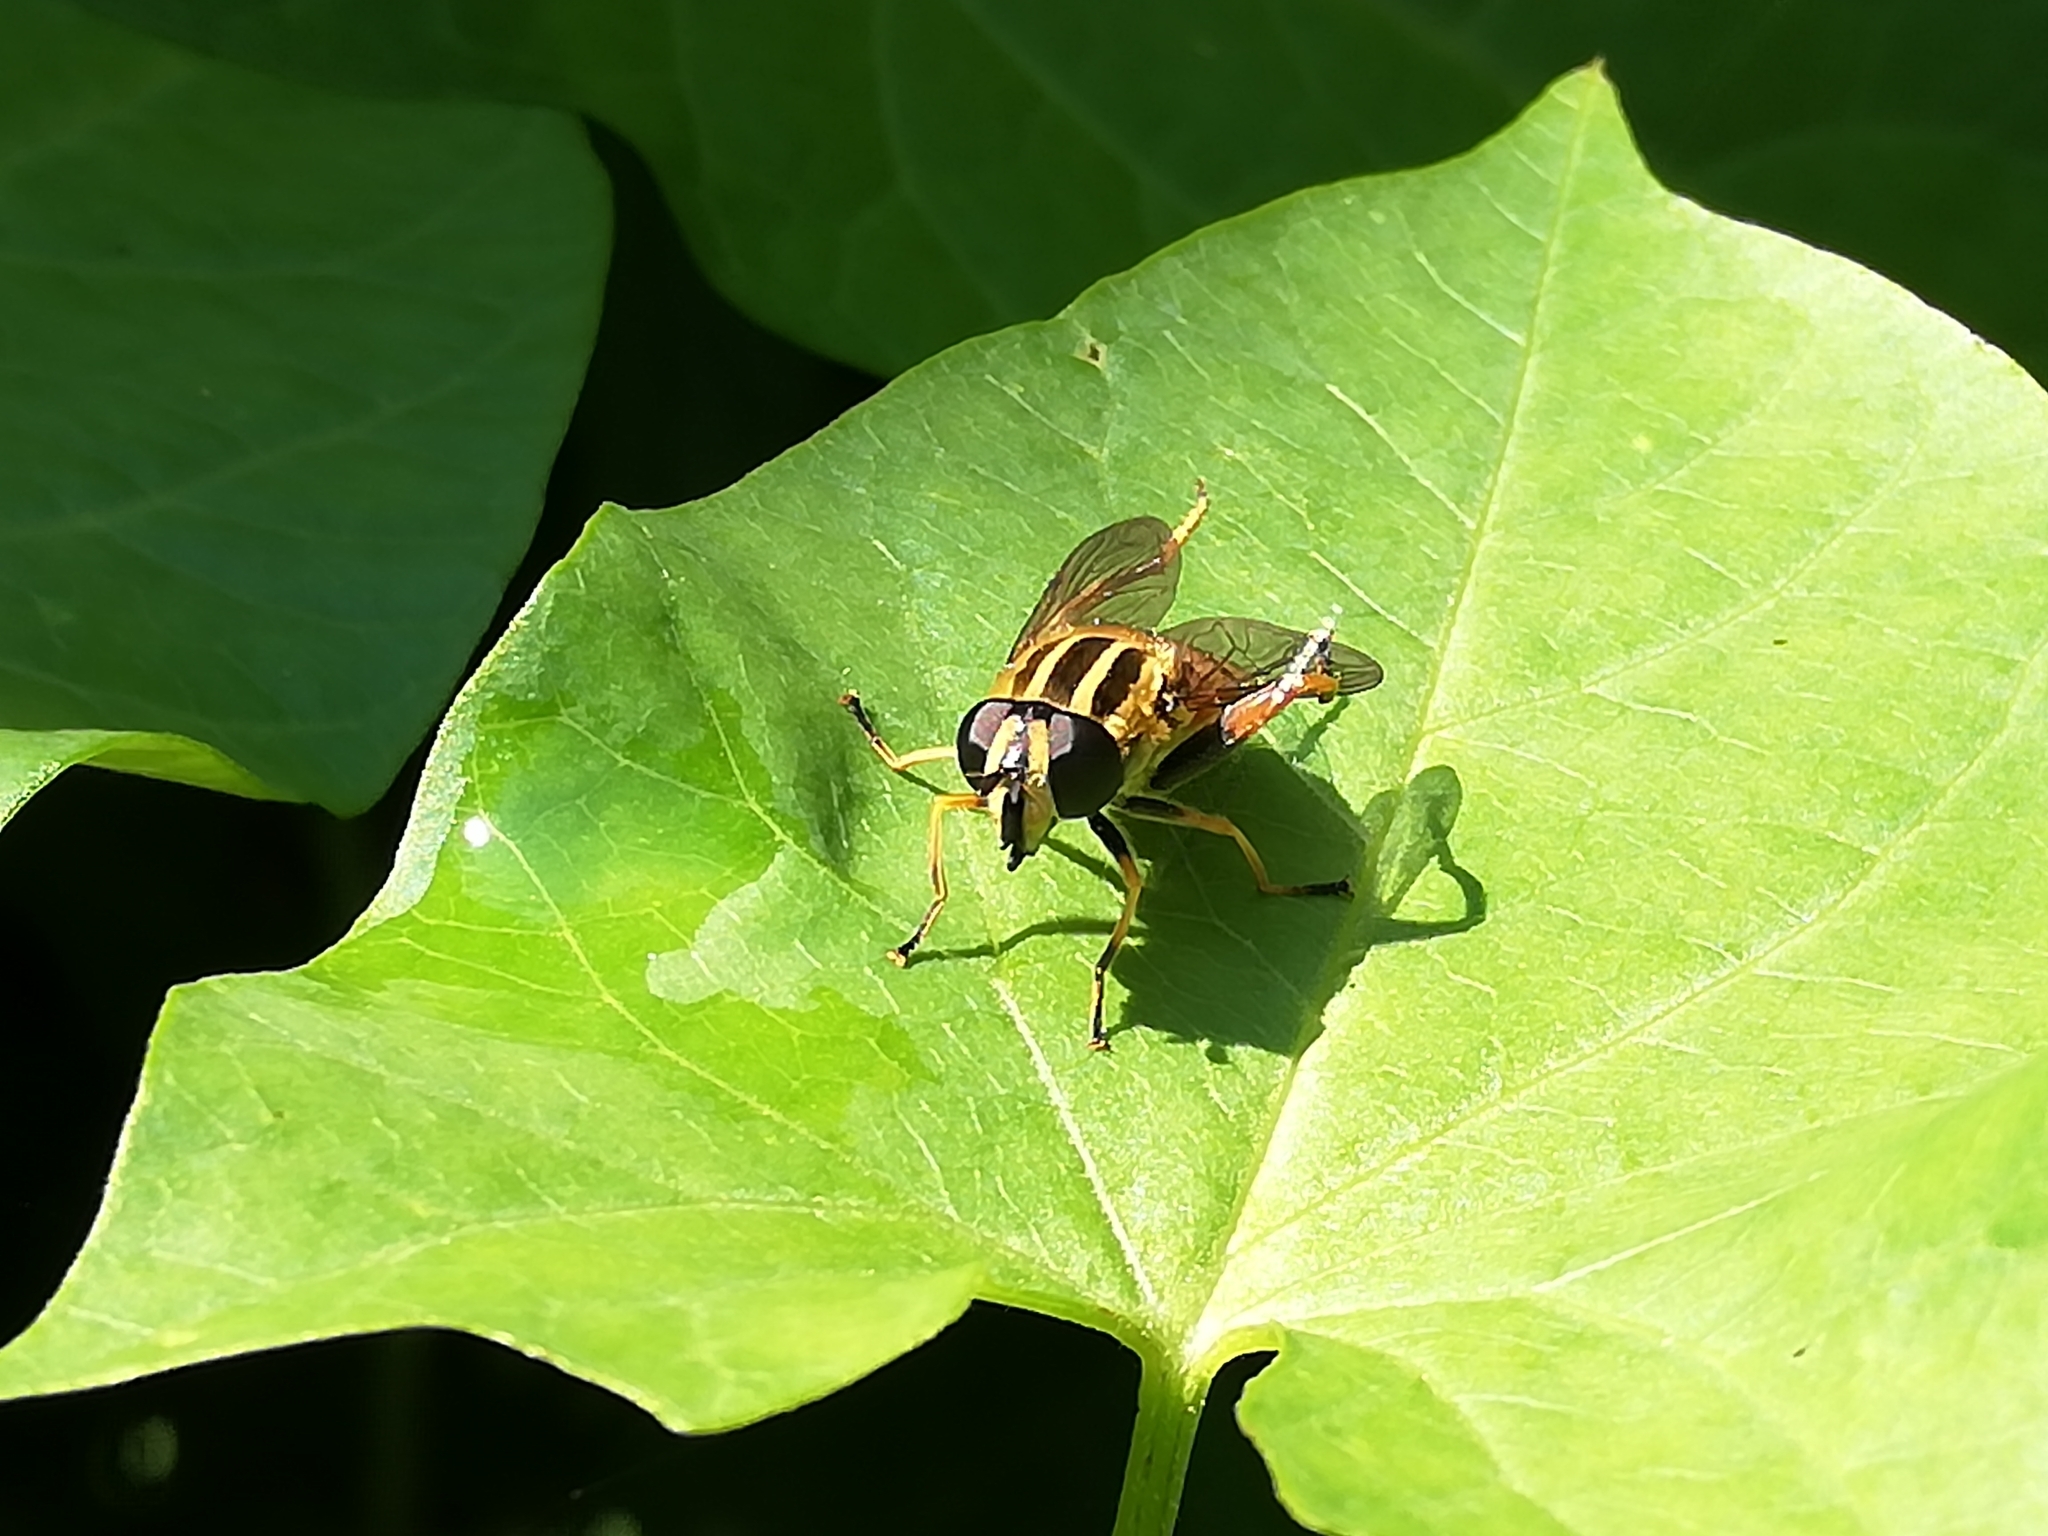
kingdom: Animalia
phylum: Arthropoda
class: Insecta
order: Diptera
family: Syrphidae
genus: Helophilus
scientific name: Helophilus pendulus
